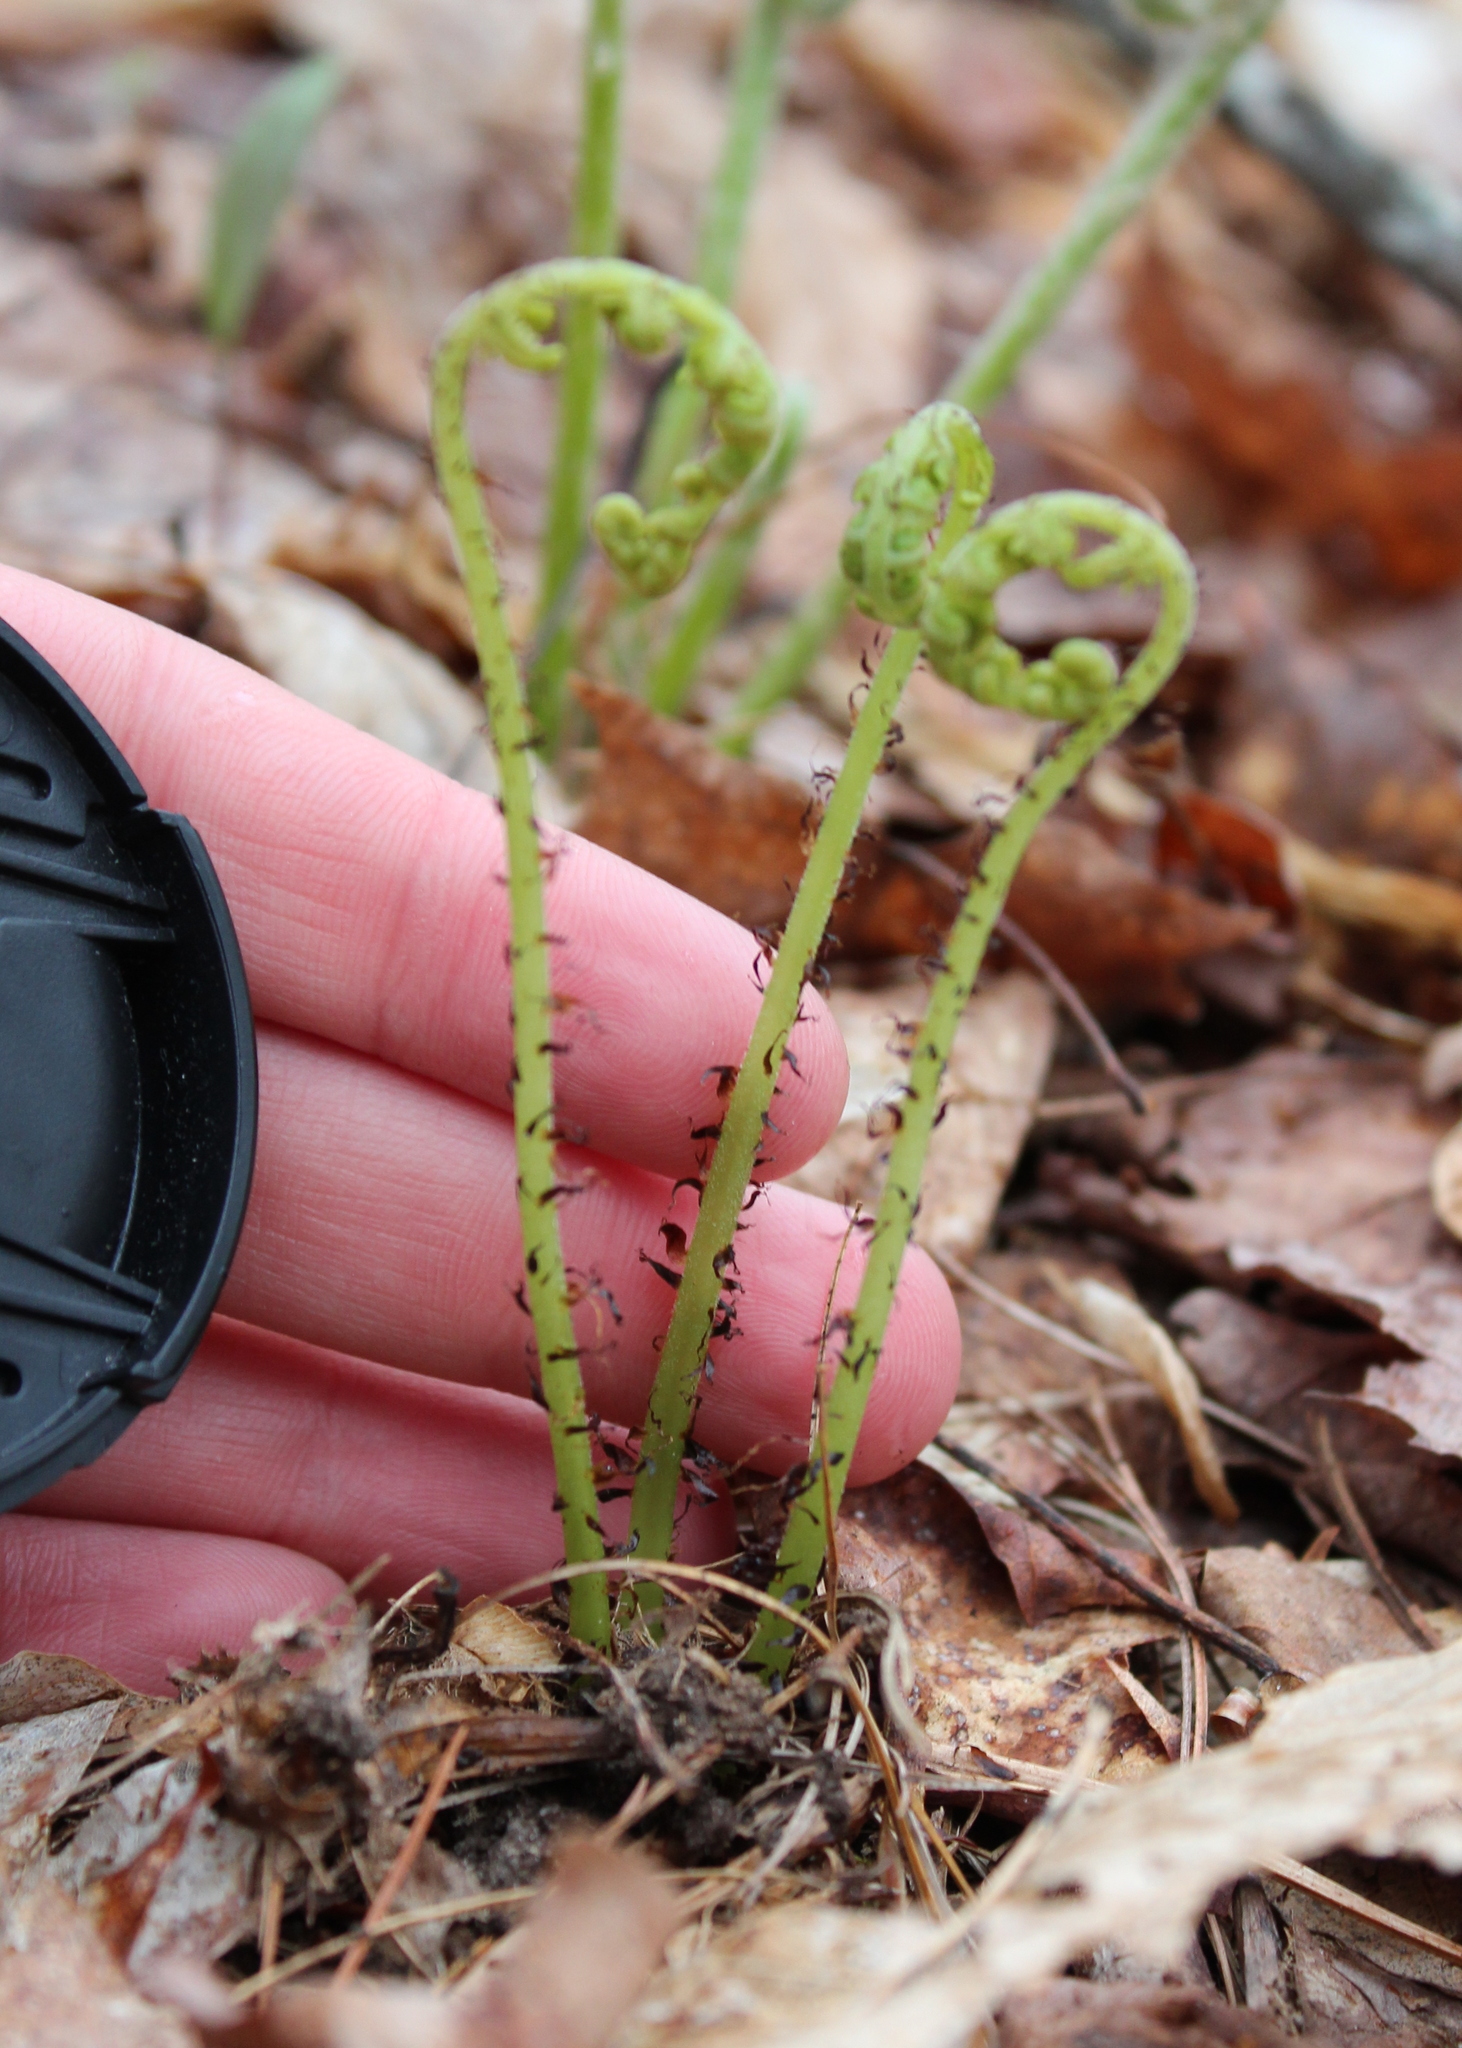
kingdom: Plantae
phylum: Tracheophyta
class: Polypodiopsida
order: Polypodiales
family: Athyriaceae
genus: Athyrium
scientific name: Athyrium angustum
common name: Northern lady fern
